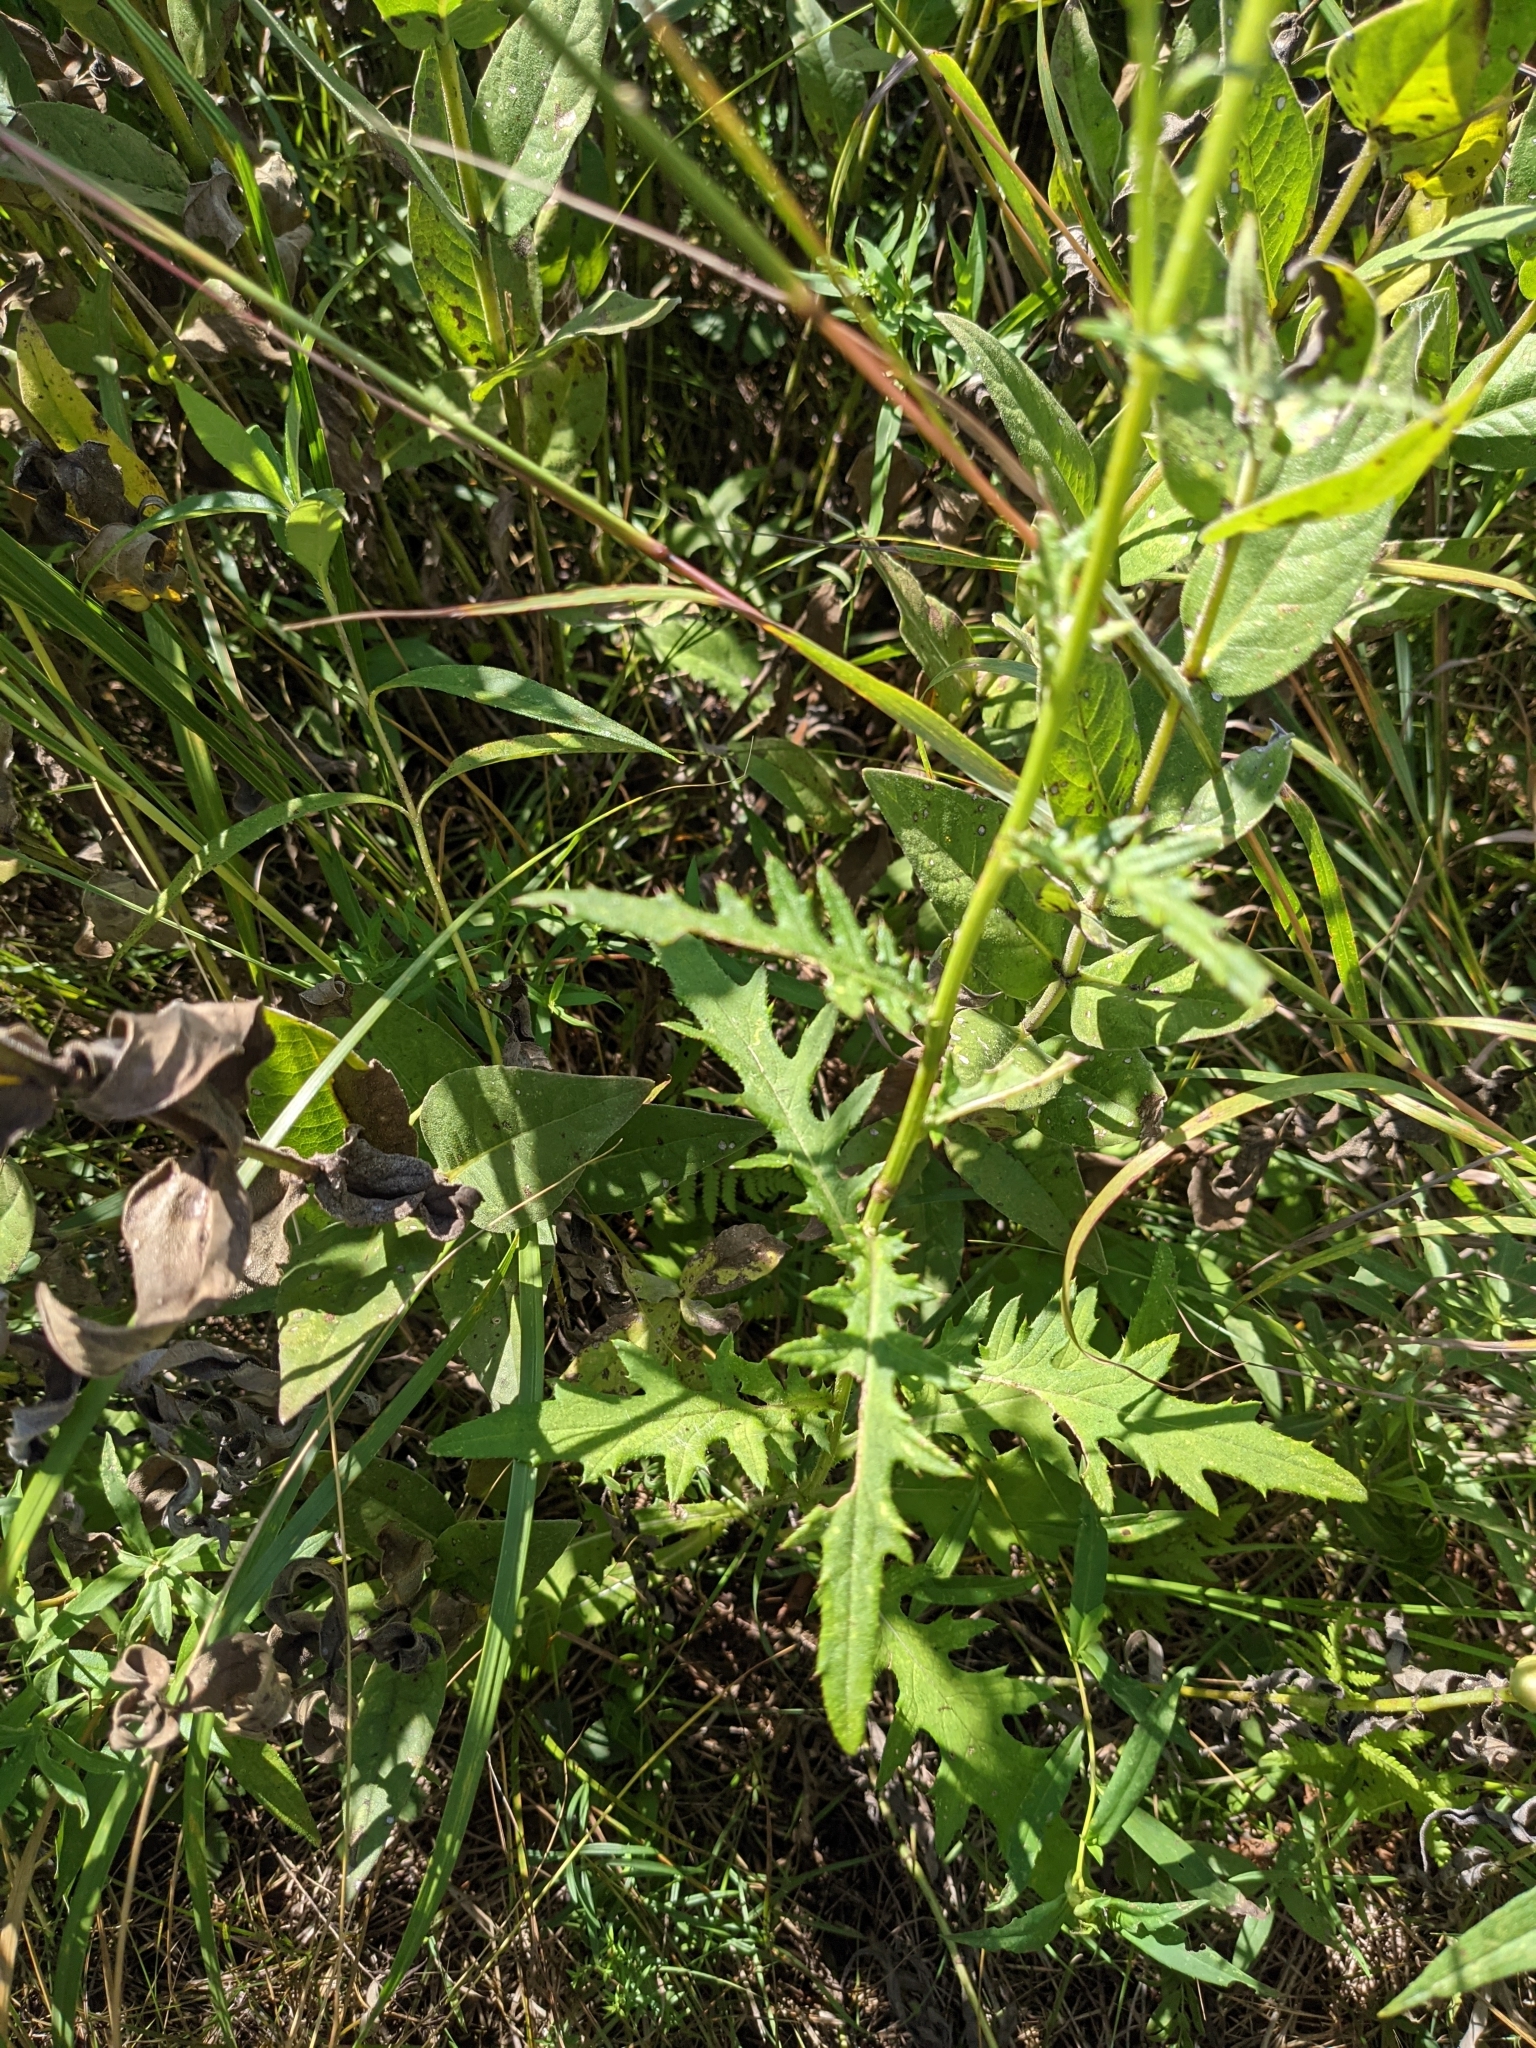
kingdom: Plantae
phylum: Tracheophyta
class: Magnoliopsida
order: Asterales
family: Asteraceae
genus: Cirsium
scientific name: Cirsium muticum
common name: Dunce-nettle
